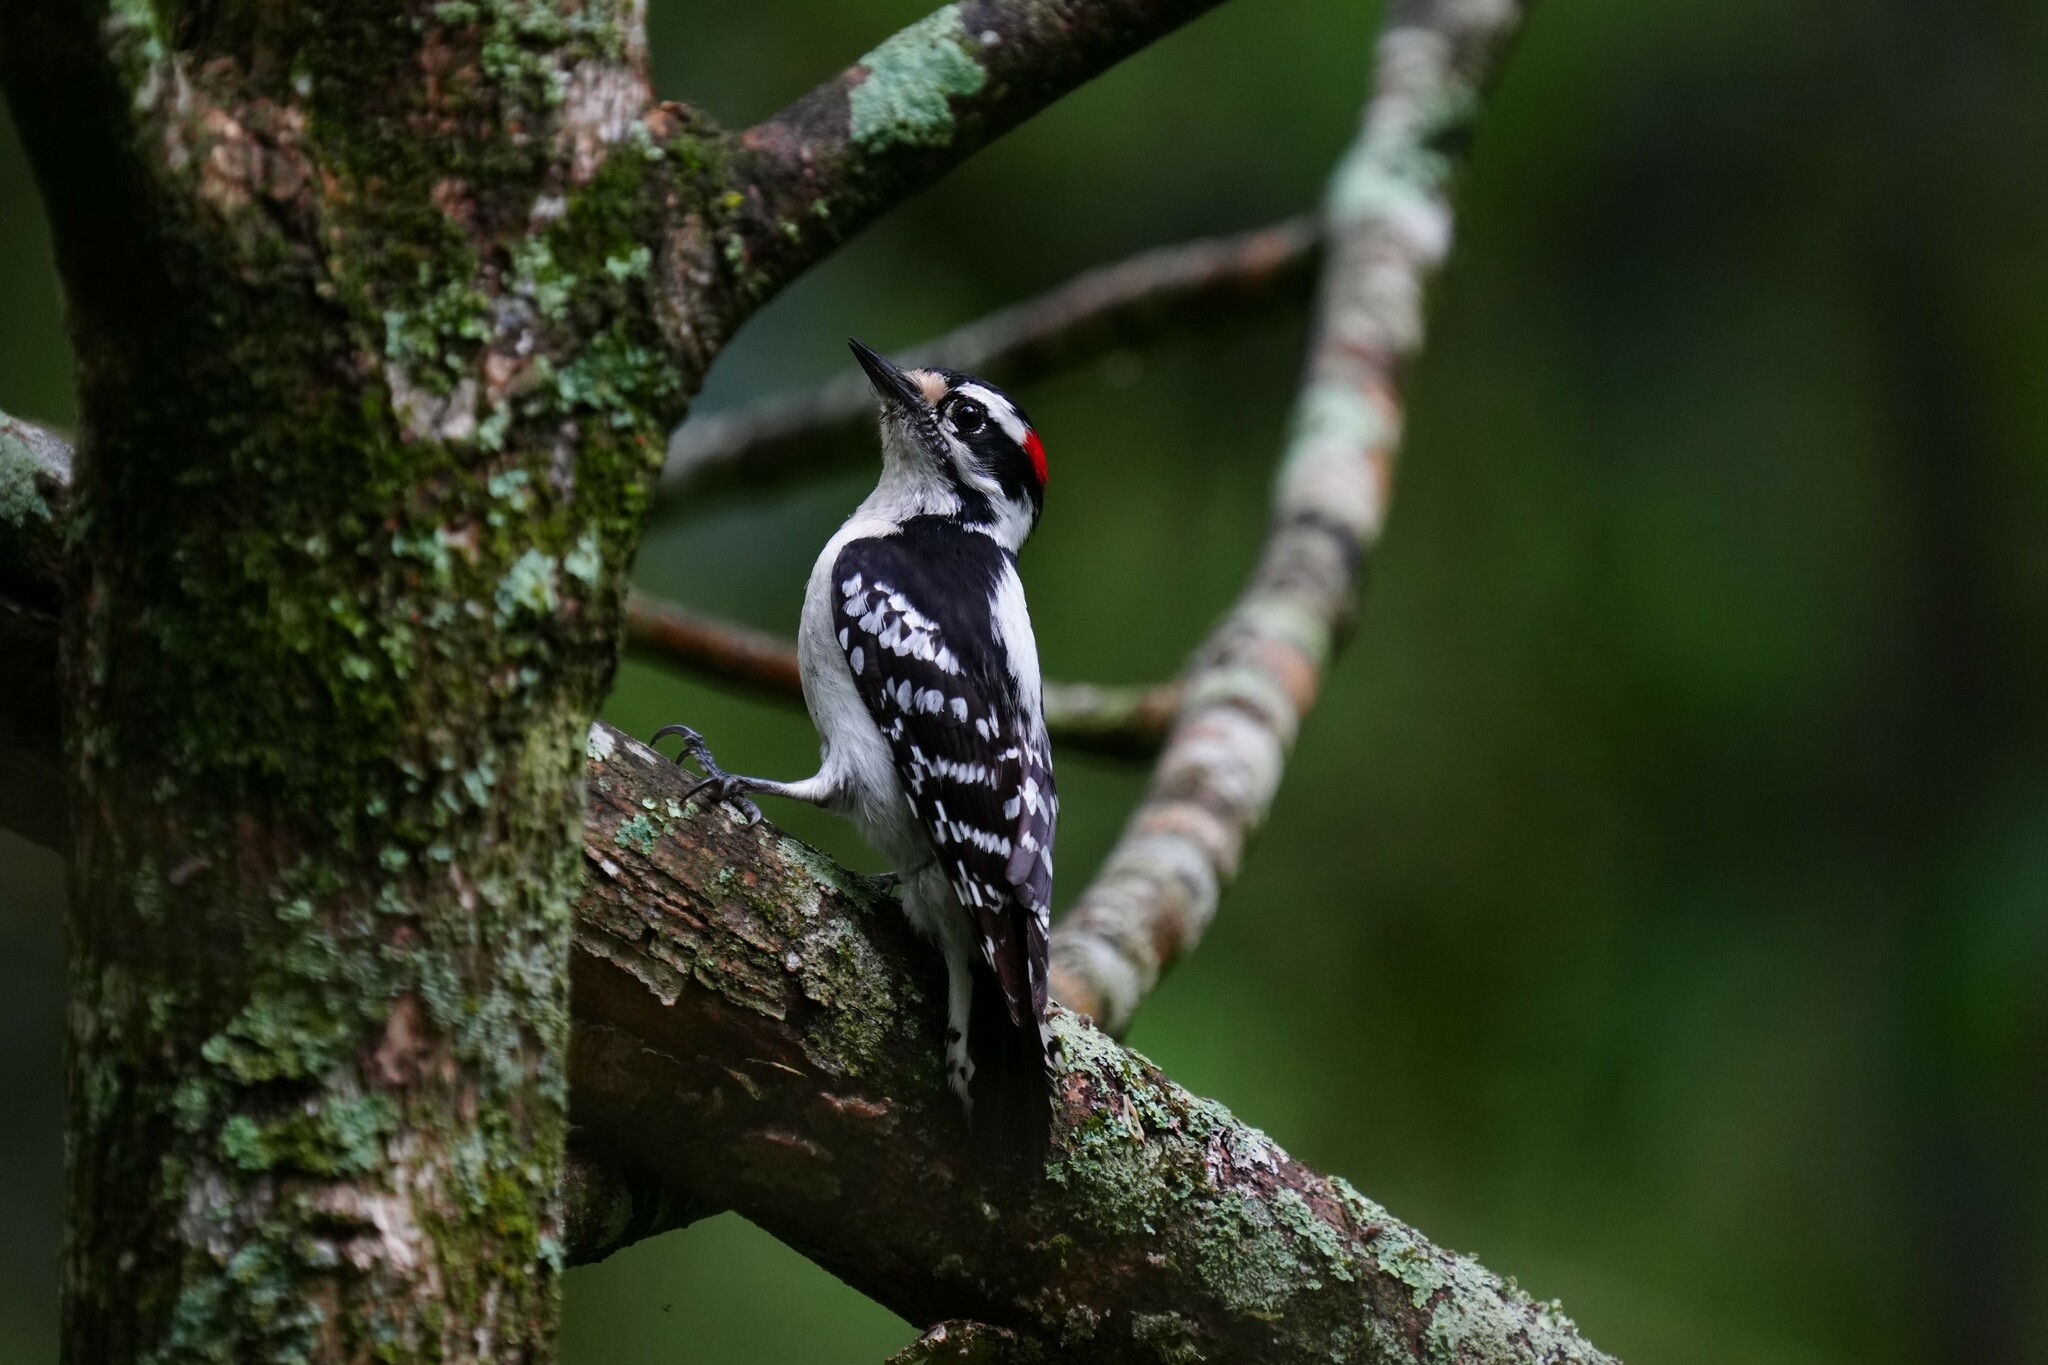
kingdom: Animalia
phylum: Chordata
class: Aves
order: Piciformes
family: Picidae
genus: Dryobates
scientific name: Dryobates pubescens
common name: Downy woodpecker
